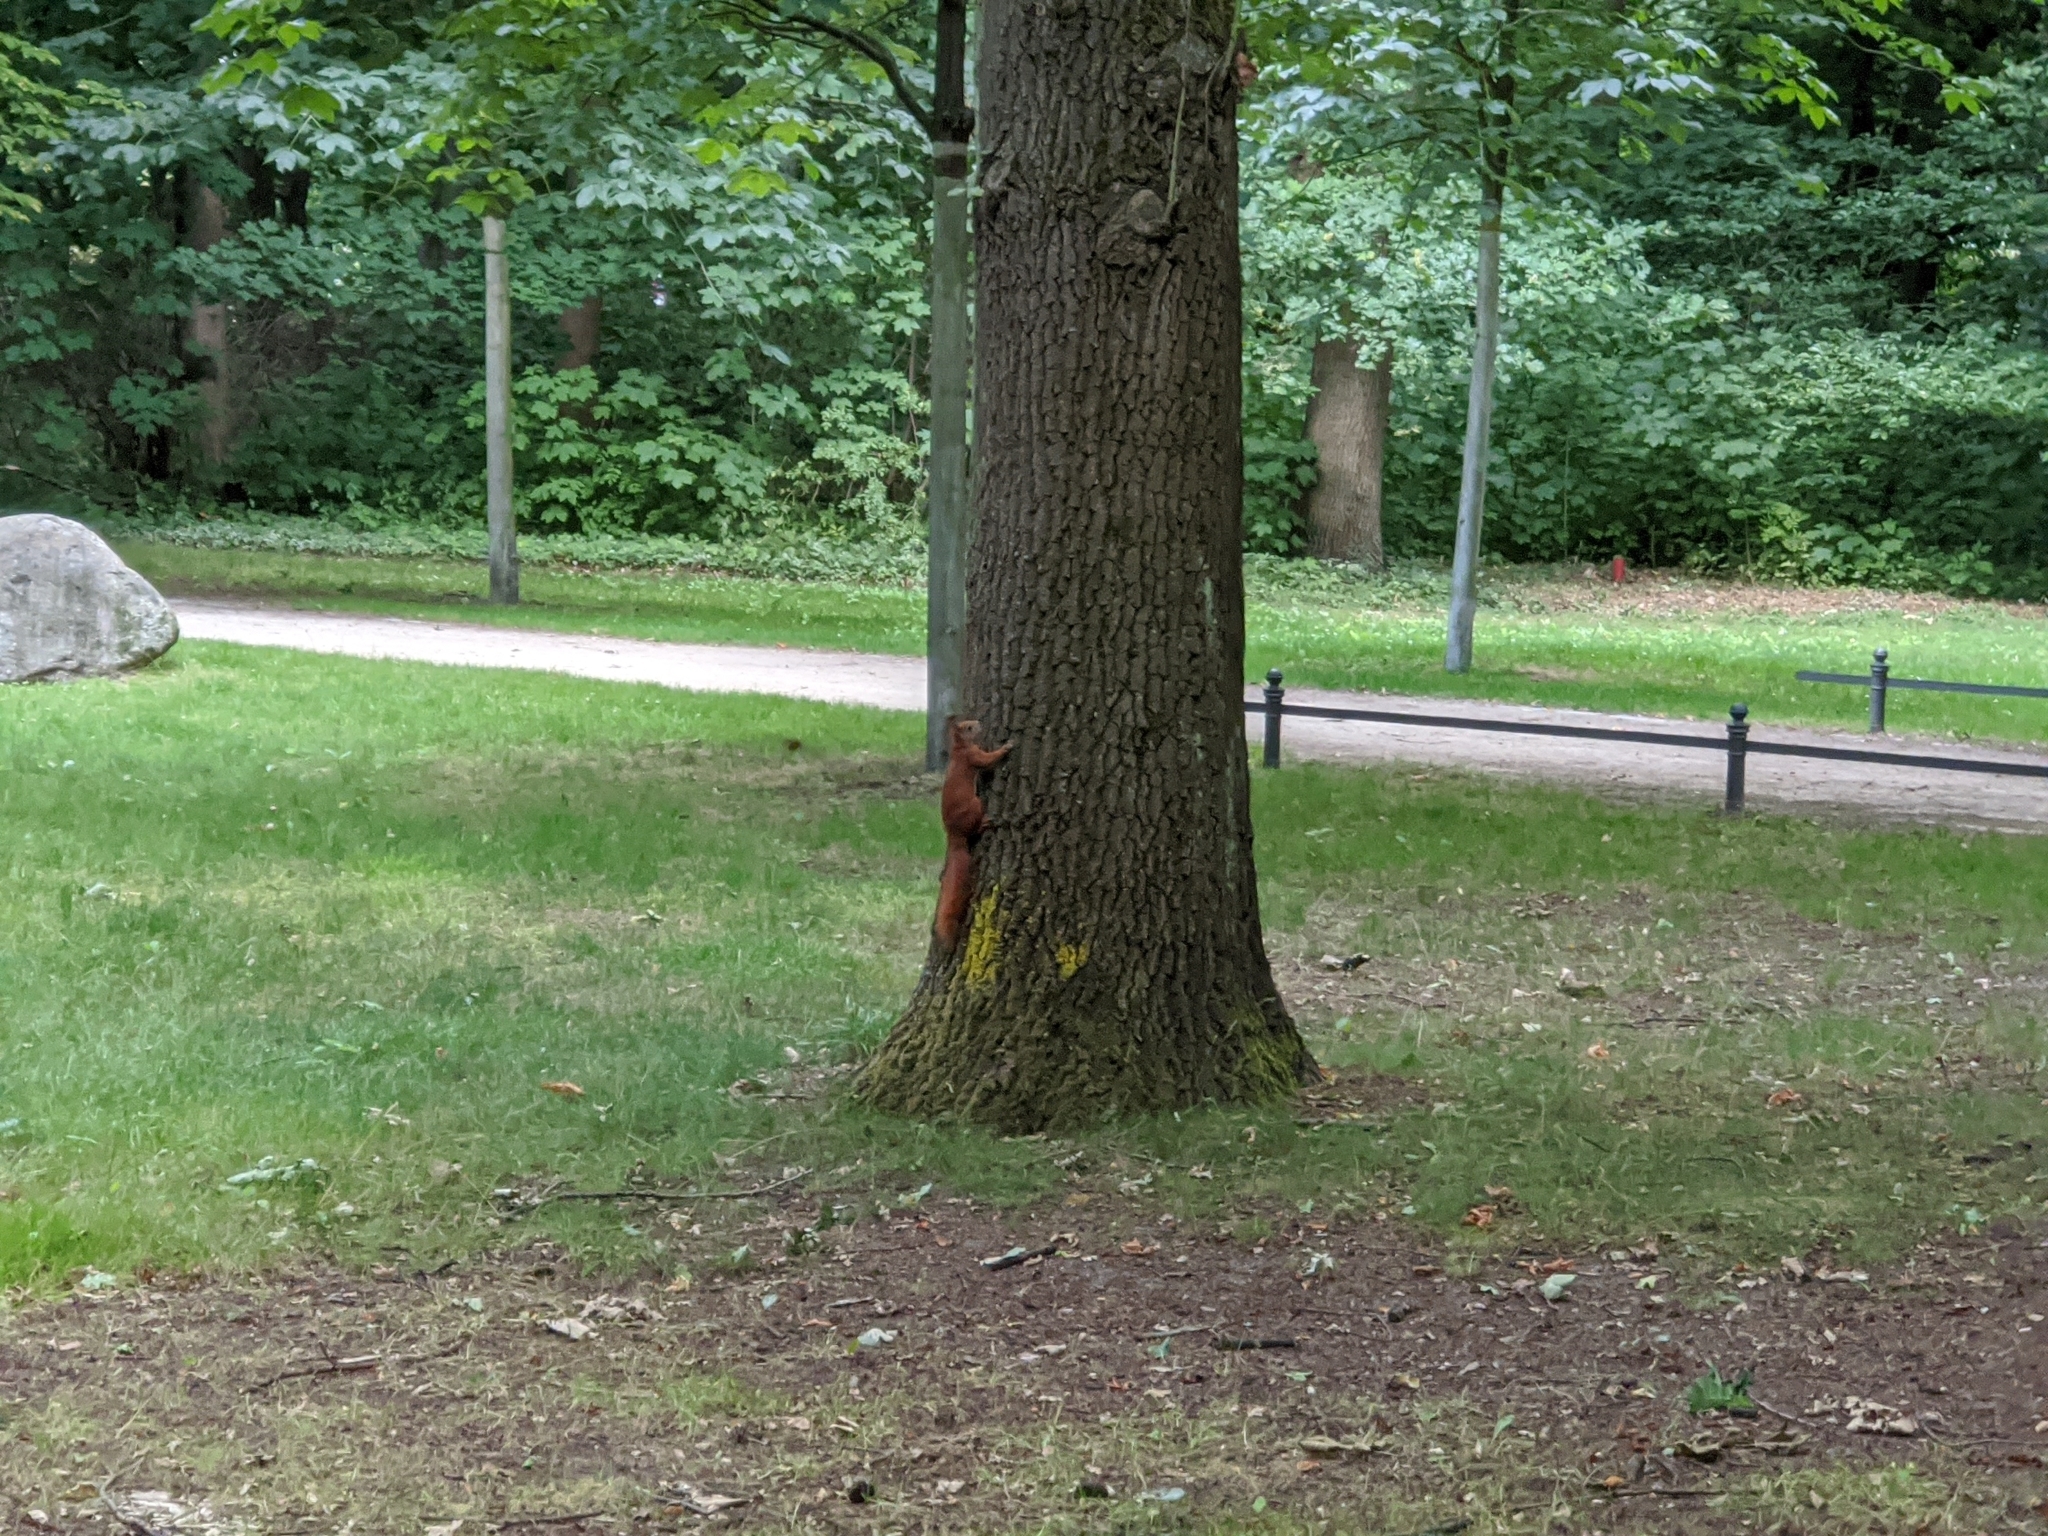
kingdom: Animalia
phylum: Chordata
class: Mammalia
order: Rodentia
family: Sciuridae
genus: Sciurus
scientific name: Sciurus vulgaris
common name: Eurasian red squirrel
